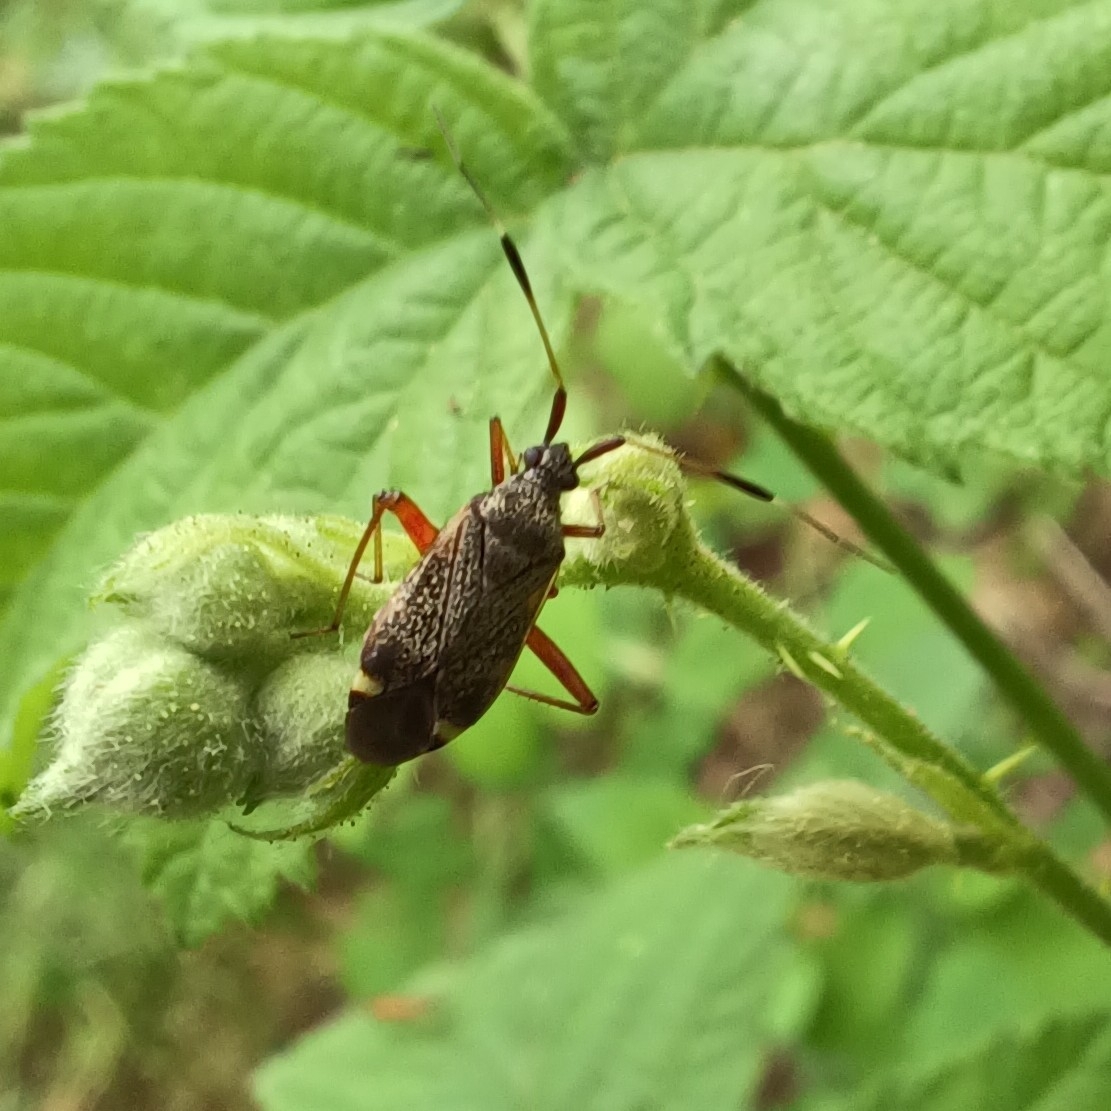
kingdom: Animalia
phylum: Arthropoda
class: Insecta
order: Hemiptera
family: Miridae
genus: Closterotomus
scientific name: Closterotomus biclavatus
